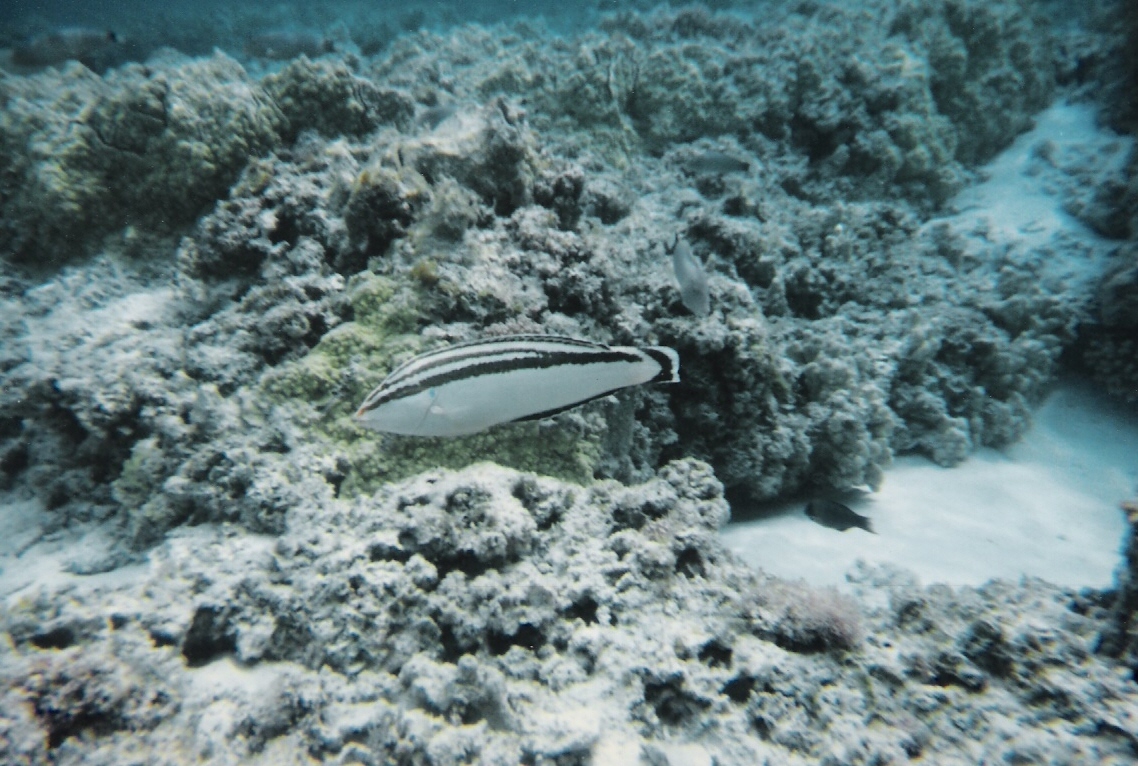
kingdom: Animalia
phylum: Chordata
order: Perciformes
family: Labridae
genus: Coris
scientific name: Coris flavovittata
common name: Yellowstripe coris
